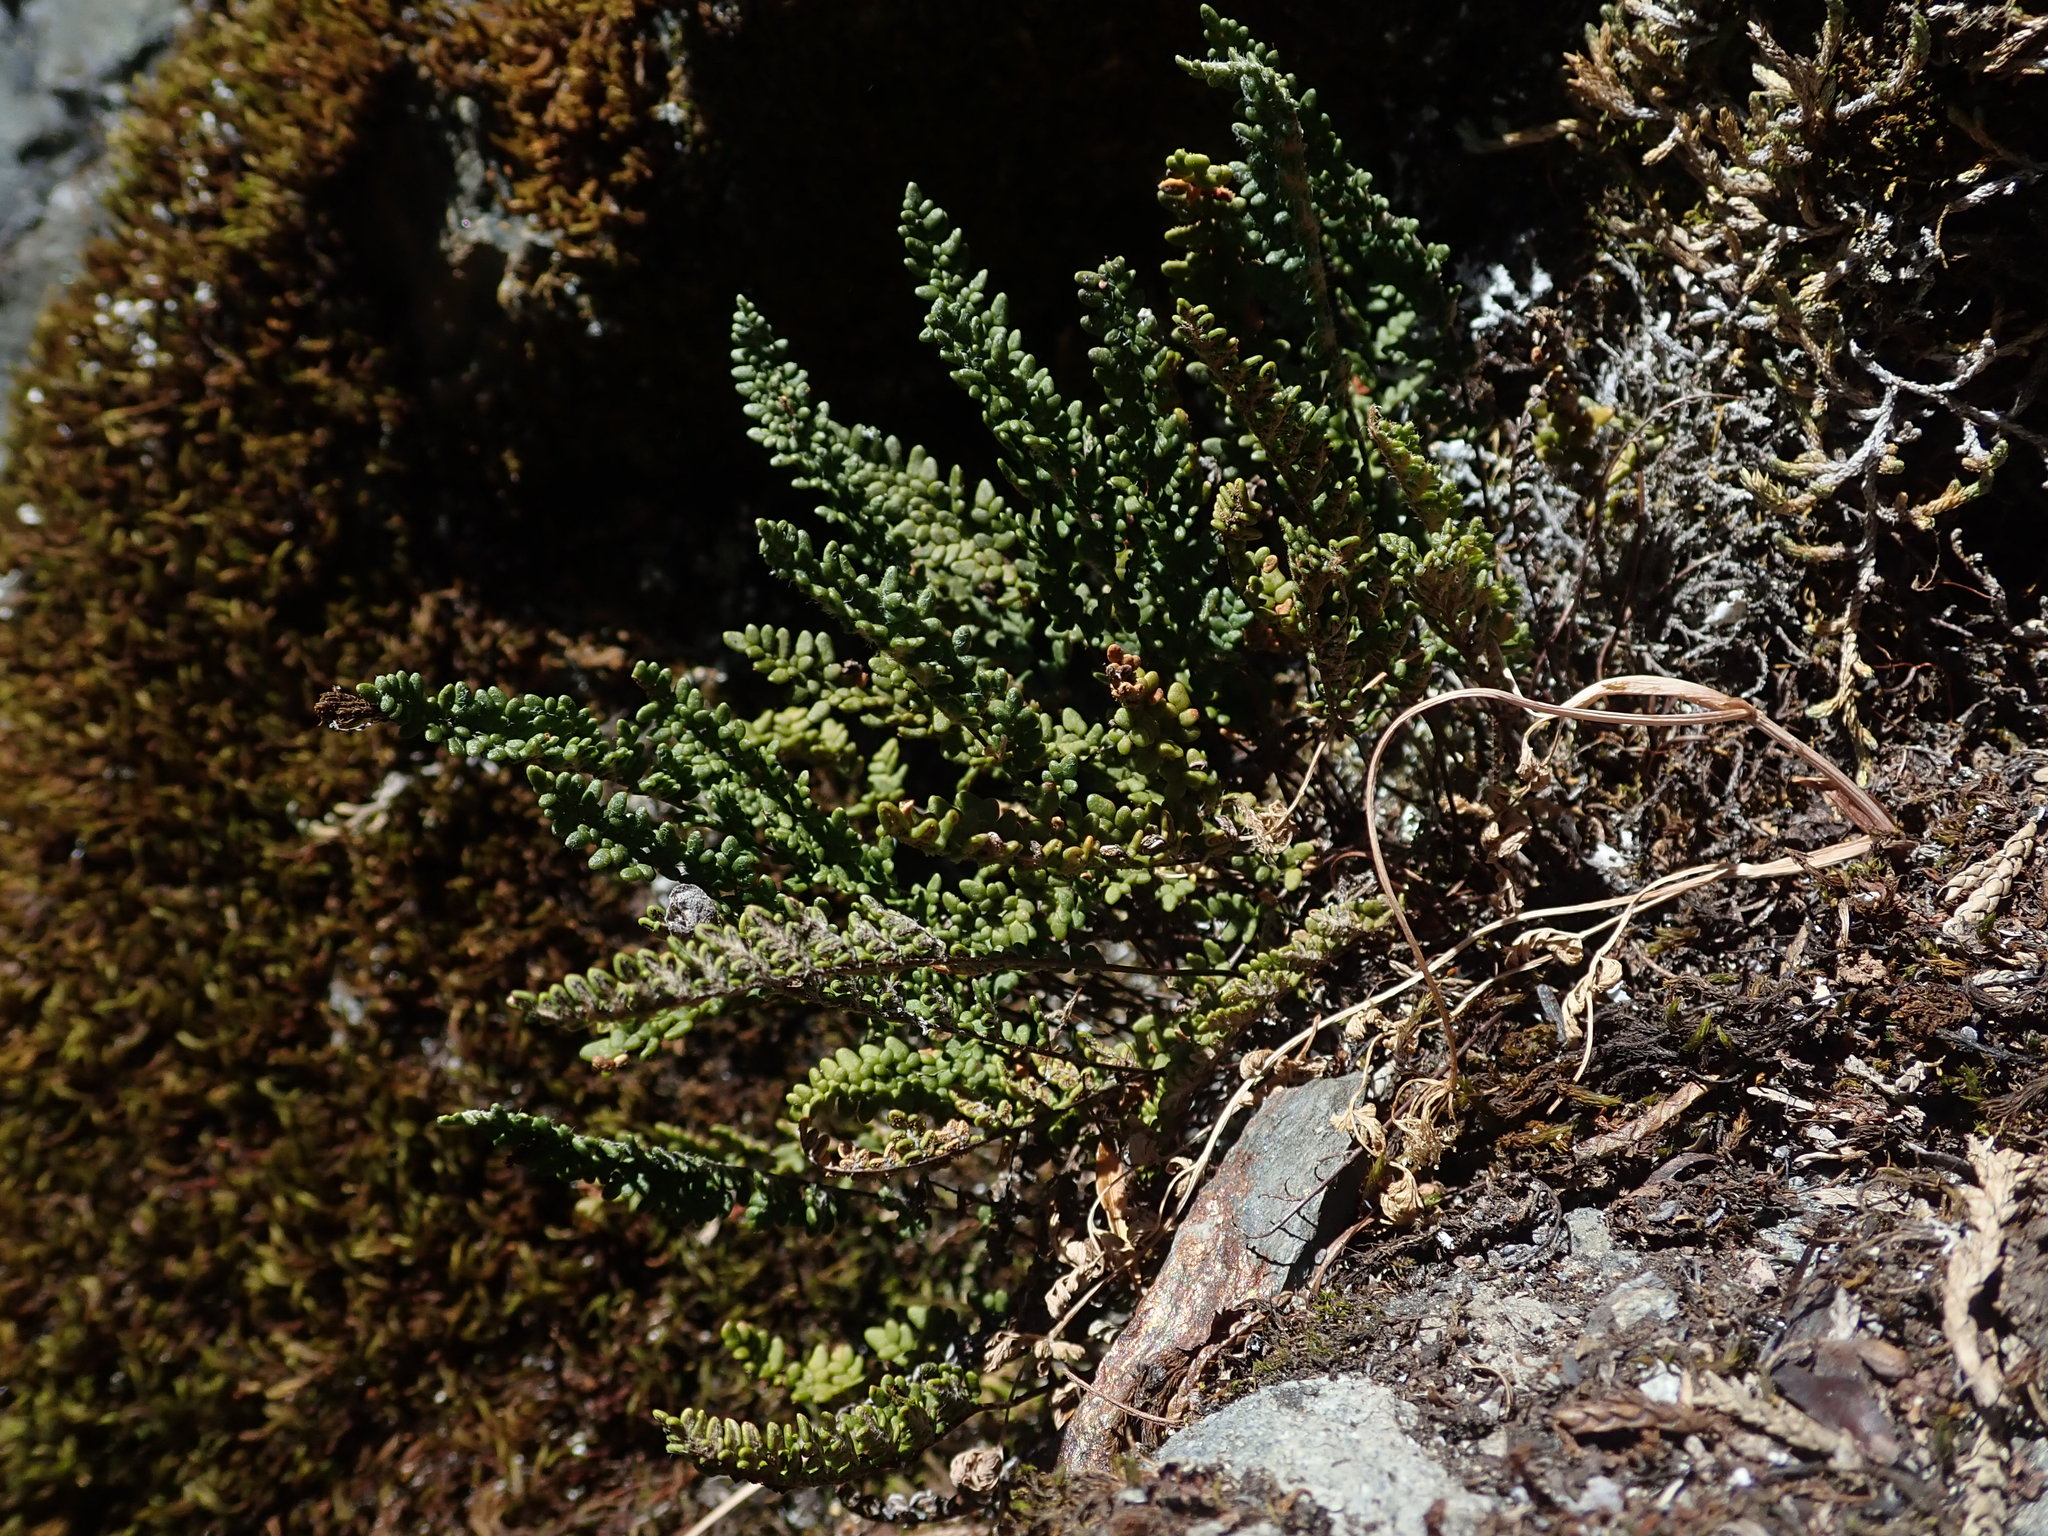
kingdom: Plantae
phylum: Tracheophyta
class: Polypodiopsida
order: Polypodiales
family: Pteridaceae
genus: Myriopteris
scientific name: Myriopteris gracillima
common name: Lace fern
